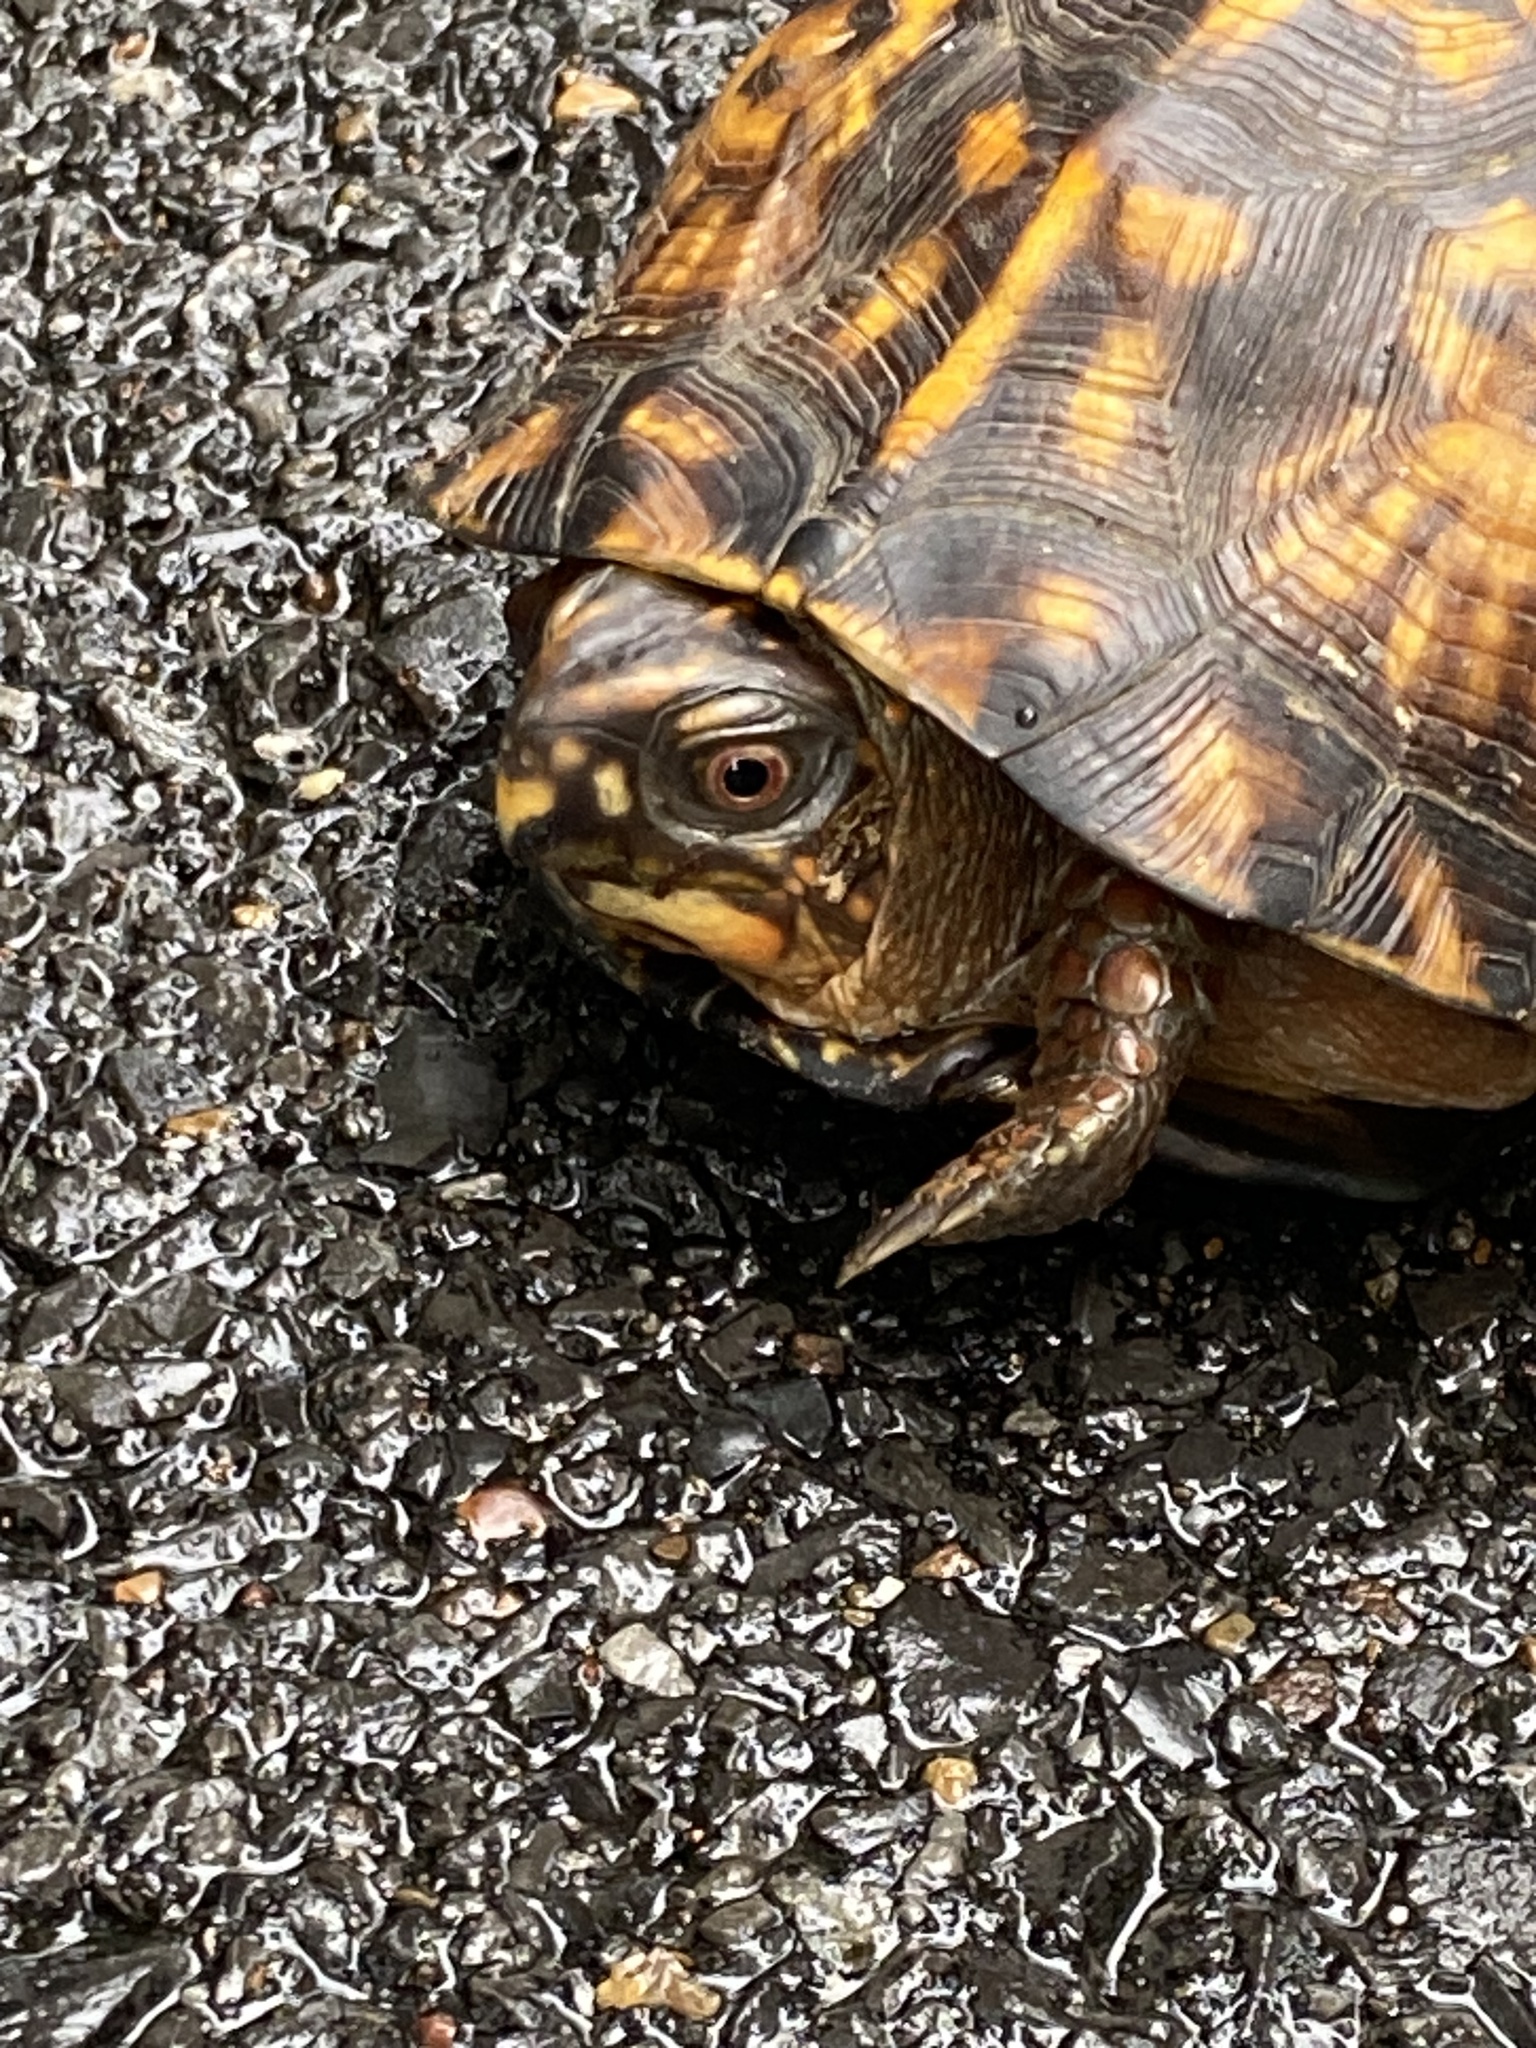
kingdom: Animalia
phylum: Chordata
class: Testudines
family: Emydidae
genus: Terrapene
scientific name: Terrapene carolina
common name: Common box turtle
